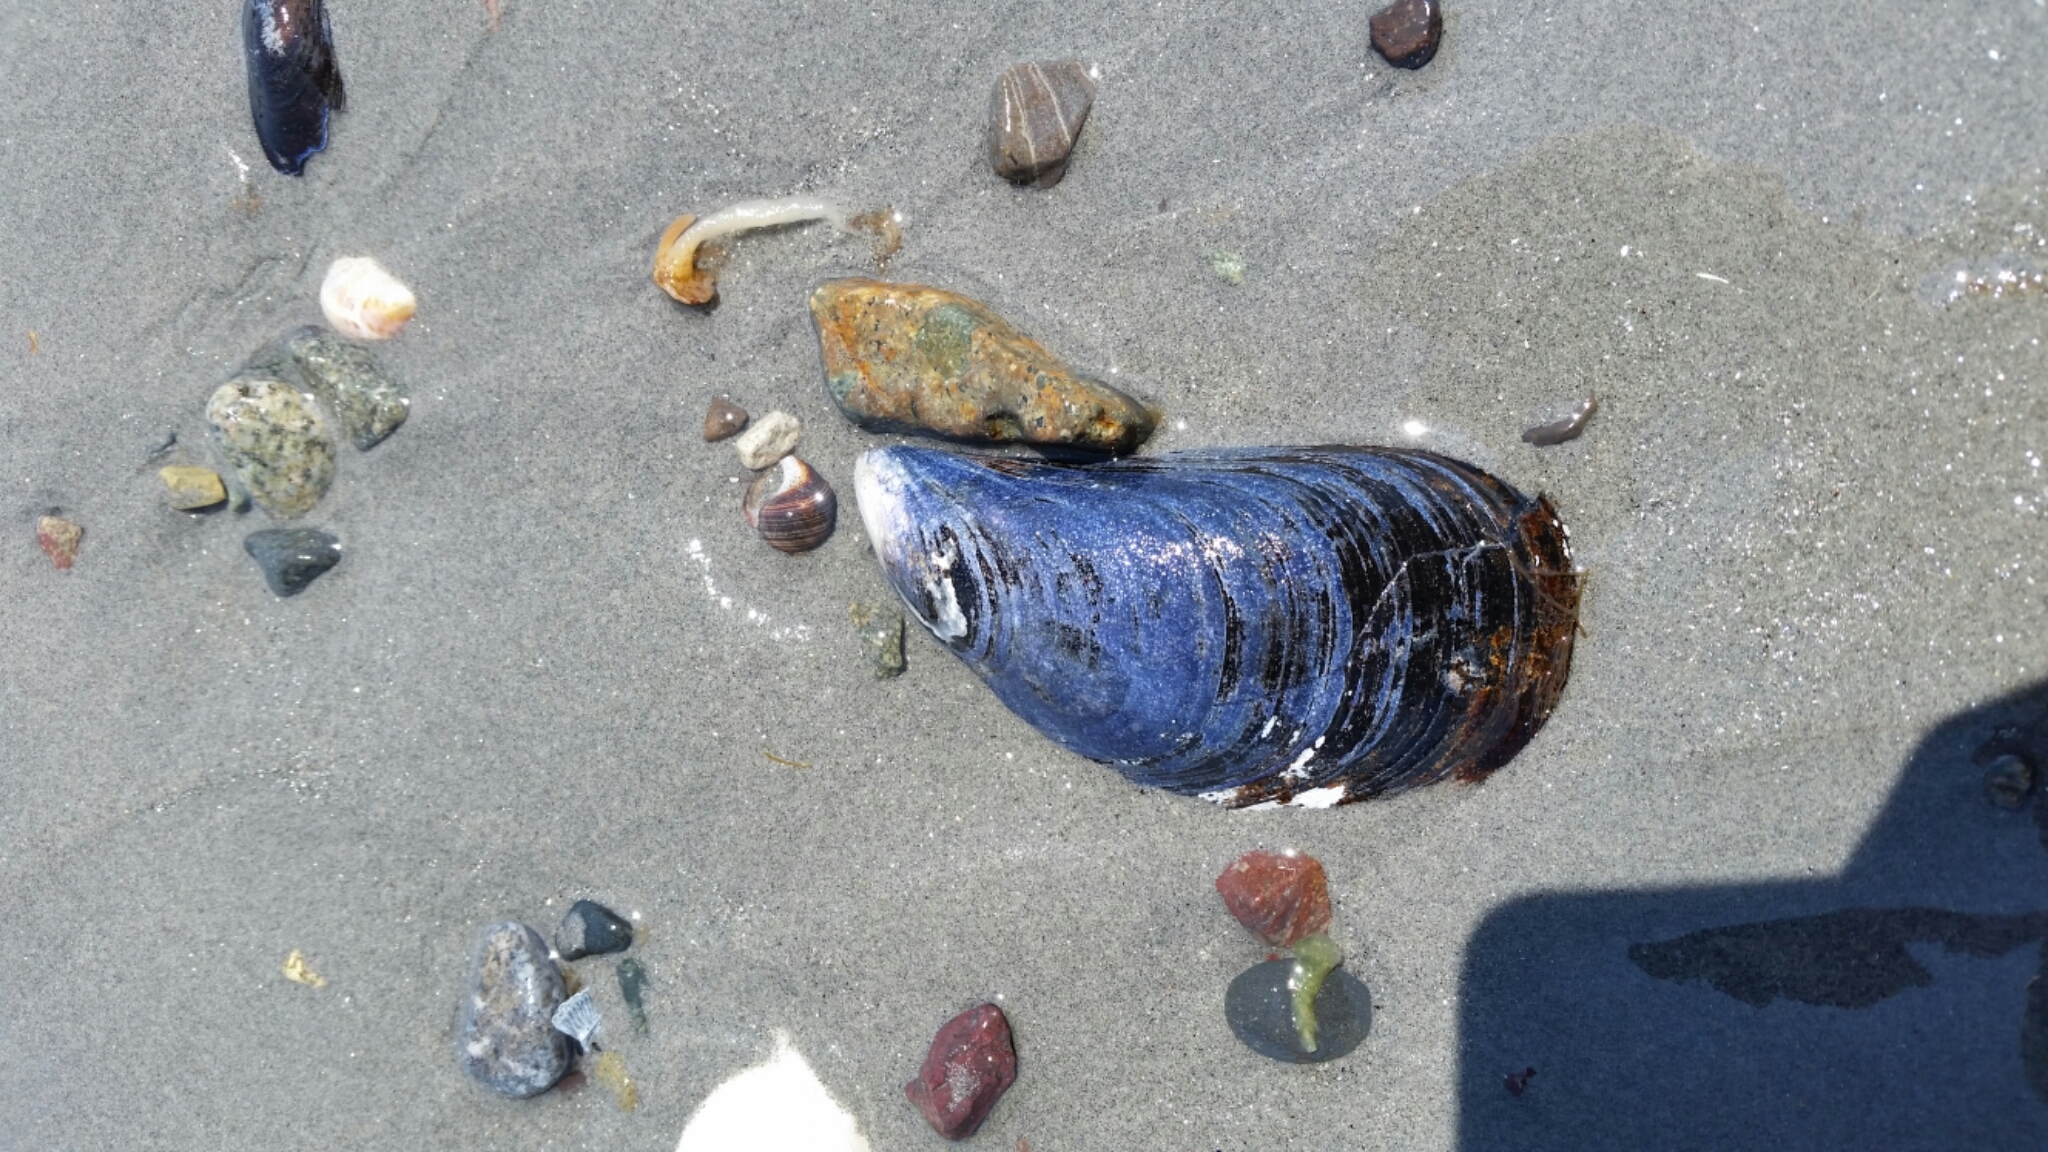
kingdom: Animalia
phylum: Mollusca
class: Bivalvia
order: Mytilida
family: Mytilidae
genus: Mytilus
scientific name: Mytilus edulis
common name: Blue mussel
